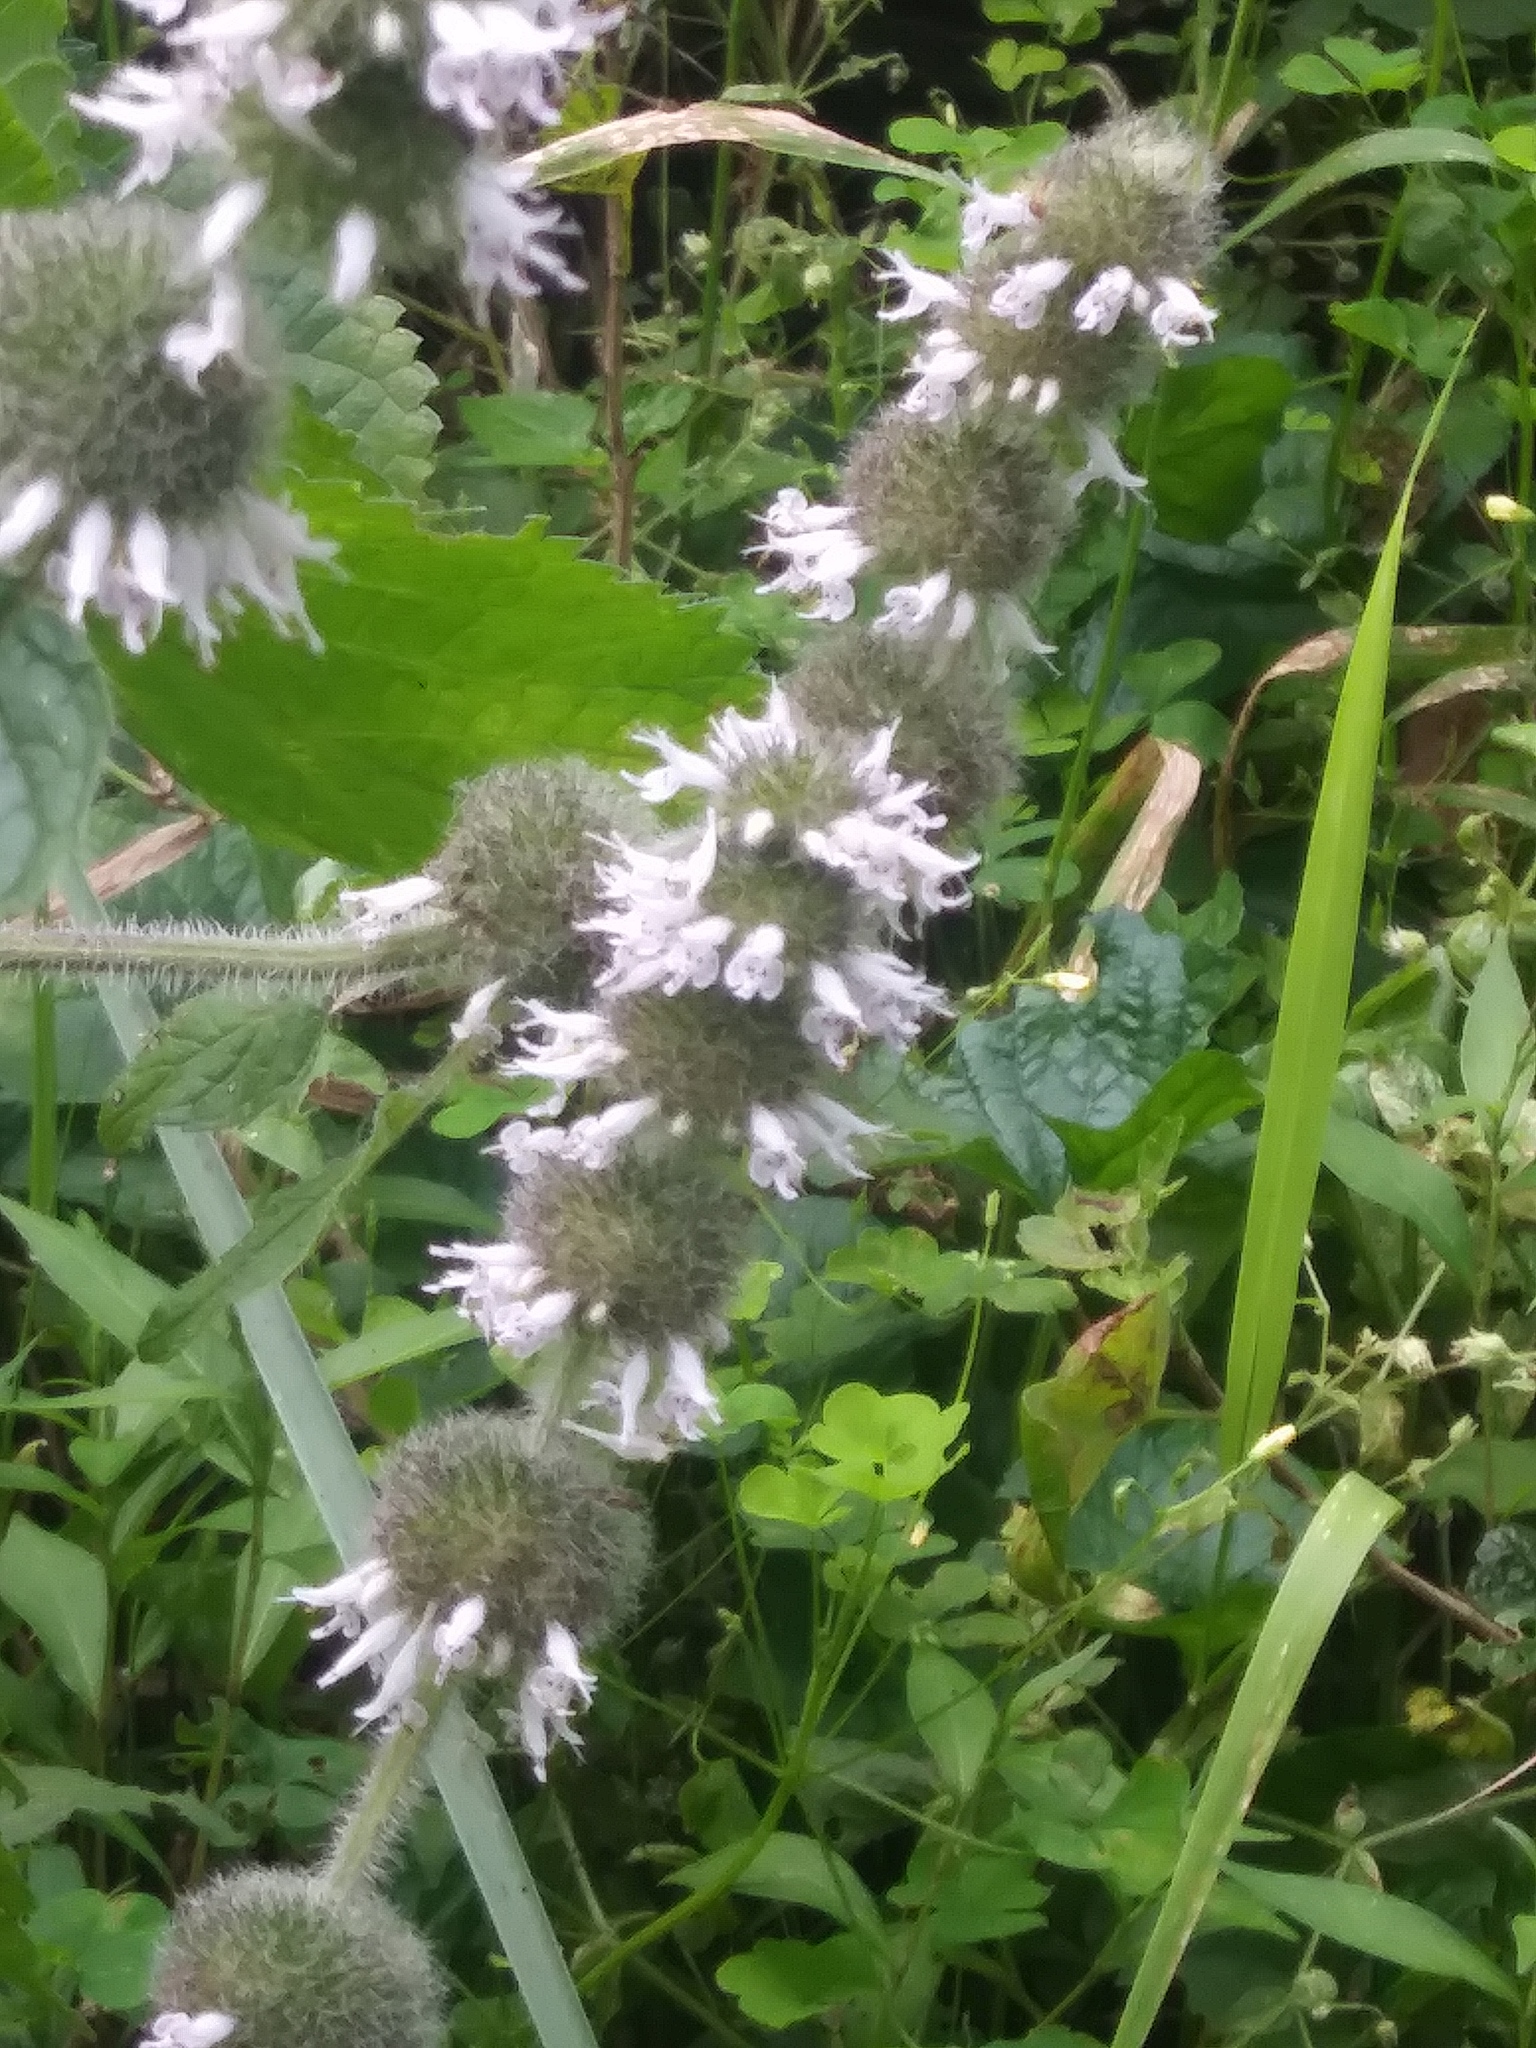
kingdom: Plantae
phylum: Tracheophyta
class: Magnoliopsida
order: Lamiales
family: Lamiaceae
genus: Blephilia
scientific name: Blephilia hirsuta
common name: Hairy blephilia
